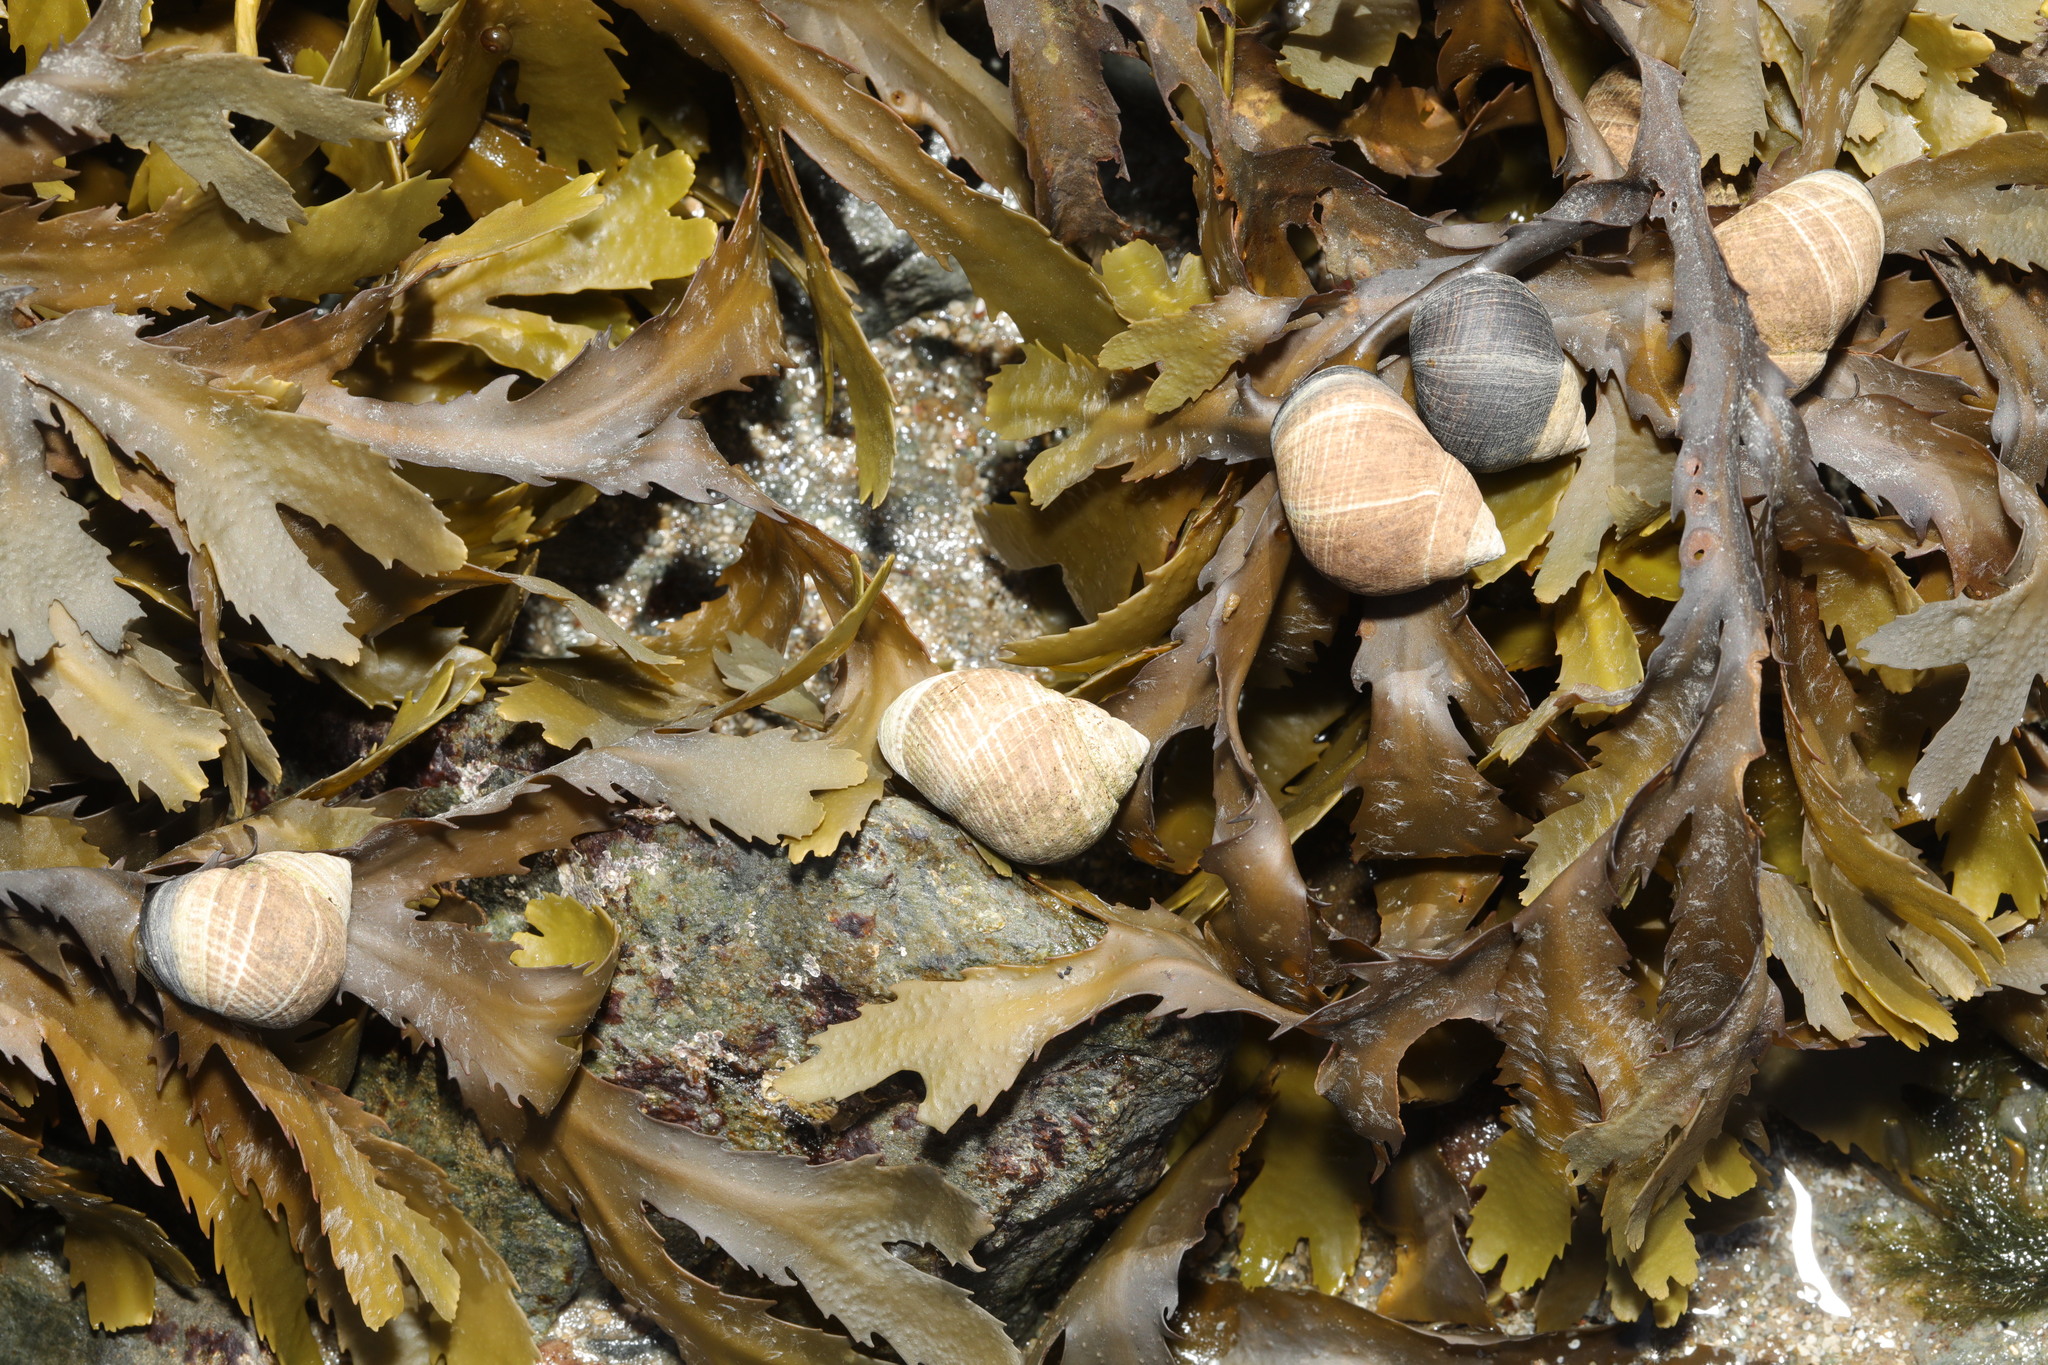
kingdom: Animalia
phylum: Mollusca
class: Gastropoda
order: Littorinimorpha
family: Littorinidae
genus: Littorina
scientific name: Littorina littorea
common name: Common periwinkle
